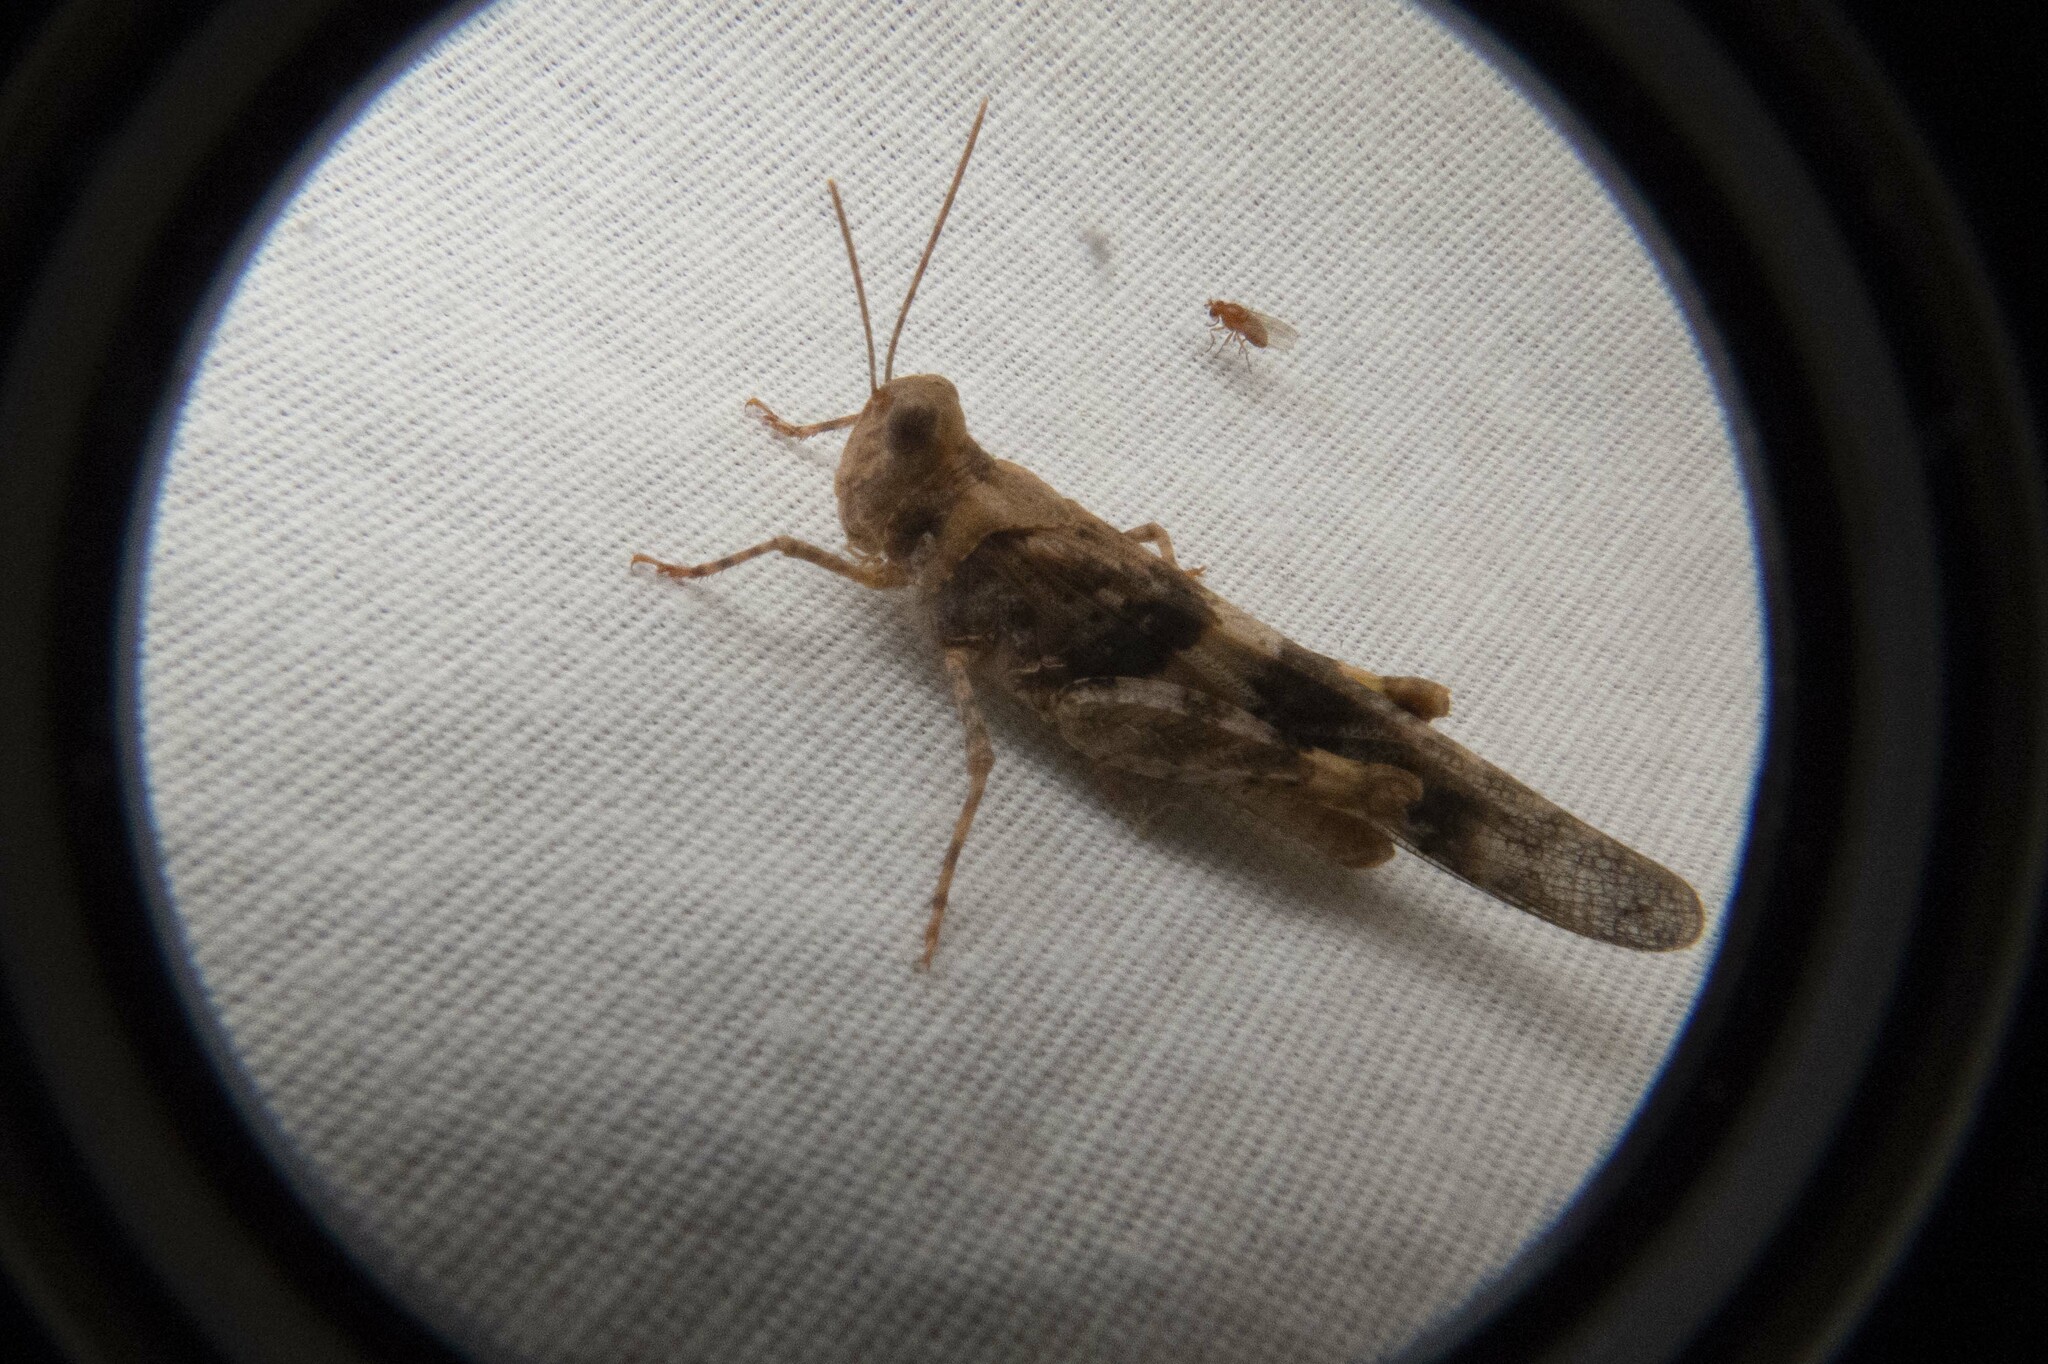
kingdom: Animalia
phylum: Arthropoda
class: Insecta
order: Orthoptera
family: Acrididae
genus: Trimerotropis
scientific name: Trimerotropis pallidipennis
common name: Pallid-winged grasshopper
